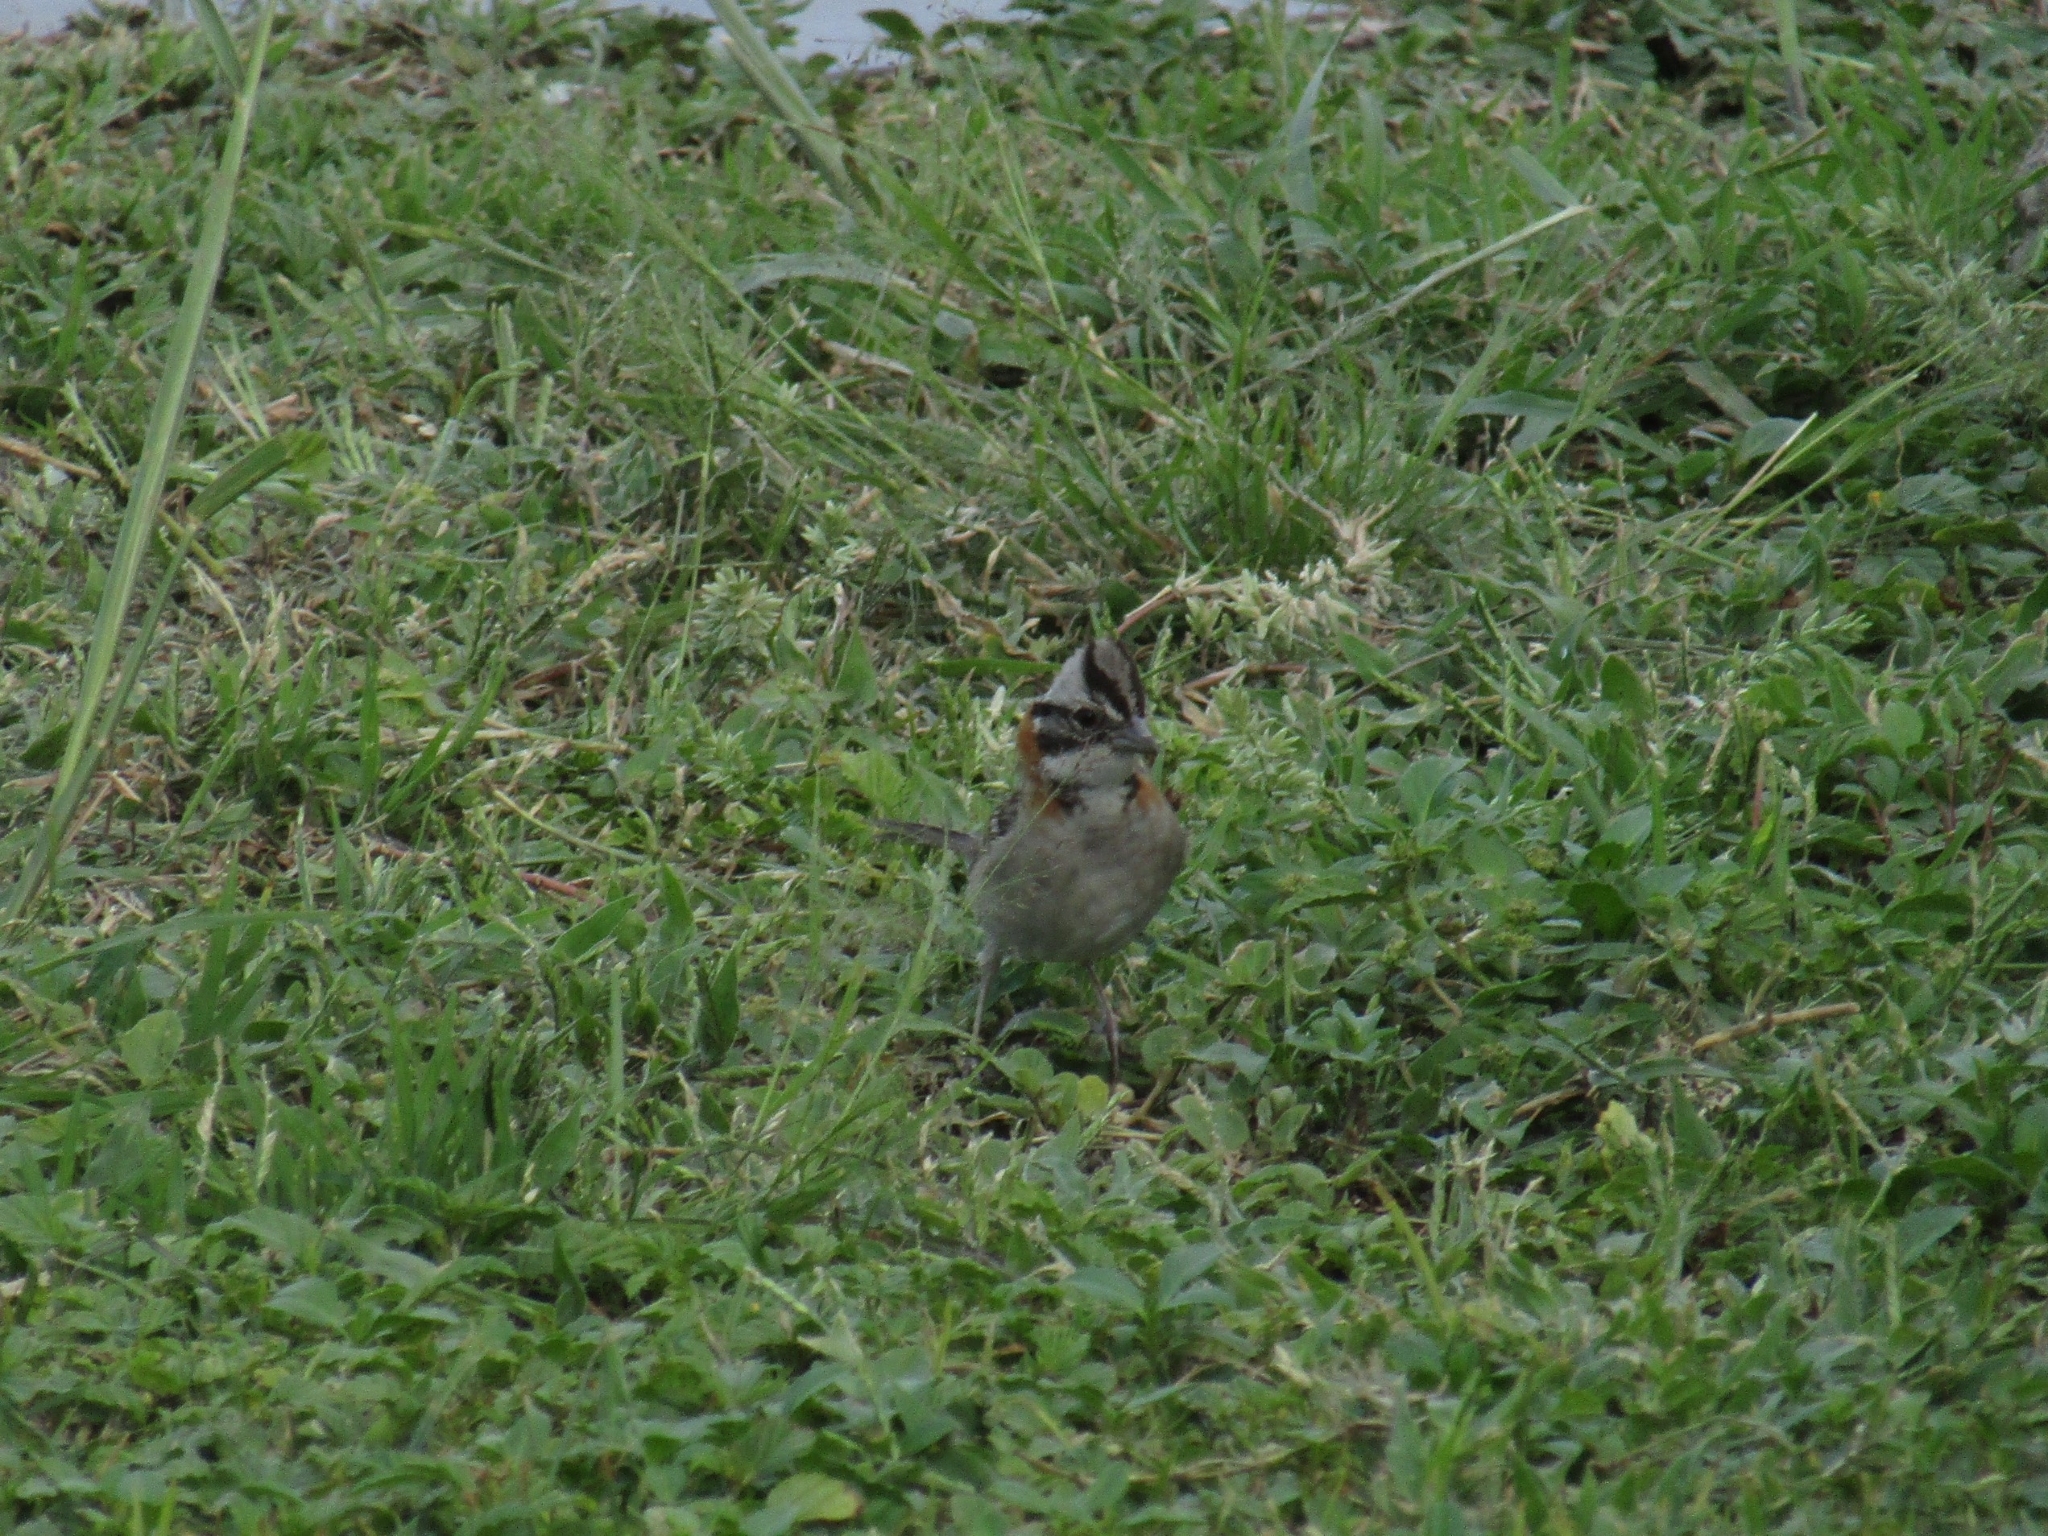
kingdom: Animalia
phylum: Chordata
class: Aves
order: Passeriformes
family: Passerellidae
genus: Zonotrichia
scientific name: Zonotrichia capensis
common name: Rufous-collared sparrow
